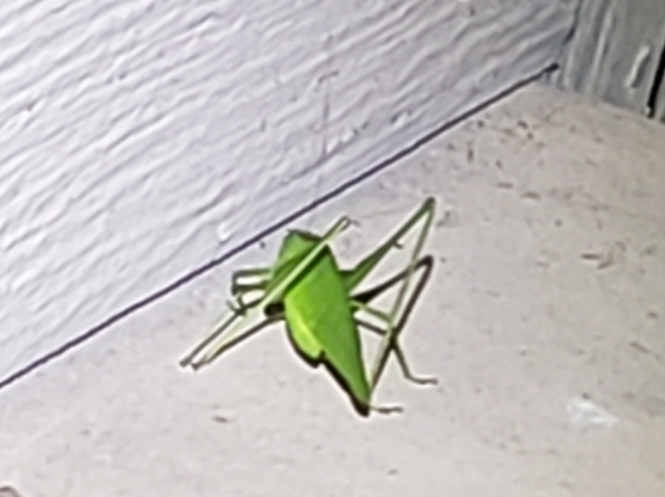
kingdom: Animalia
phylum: Arthropoda
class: Insecta
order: Orthoptera
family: Tettigoniidae
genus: Amblycorypha
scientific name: Amblycorypha floridana
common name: Florida false katydid
